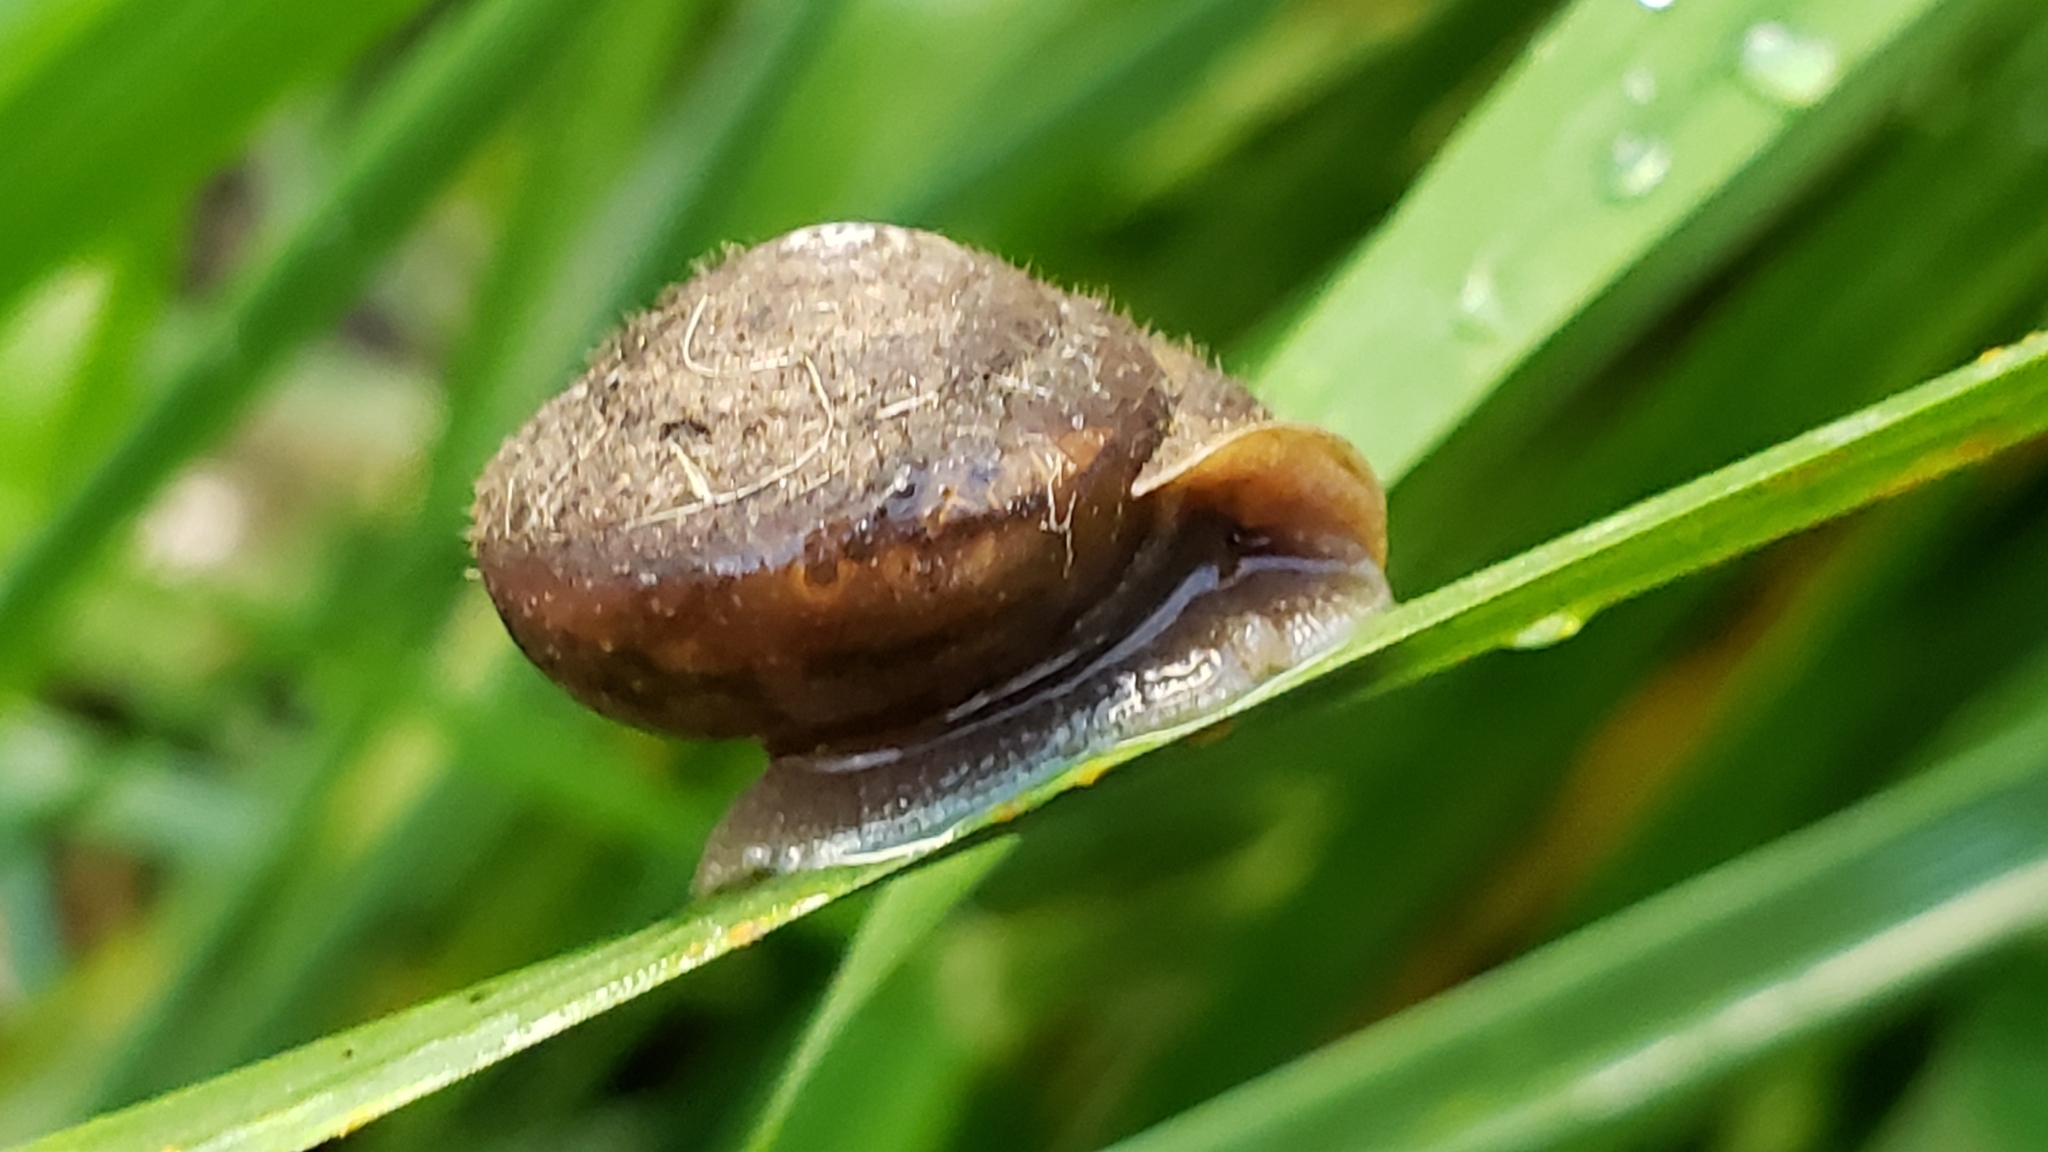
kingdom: Animalia
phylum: Mollusca
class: Gastropoda
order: Stylommatophora
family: Polygyridae
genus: Vespericola
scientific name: Vespericola columbianus
